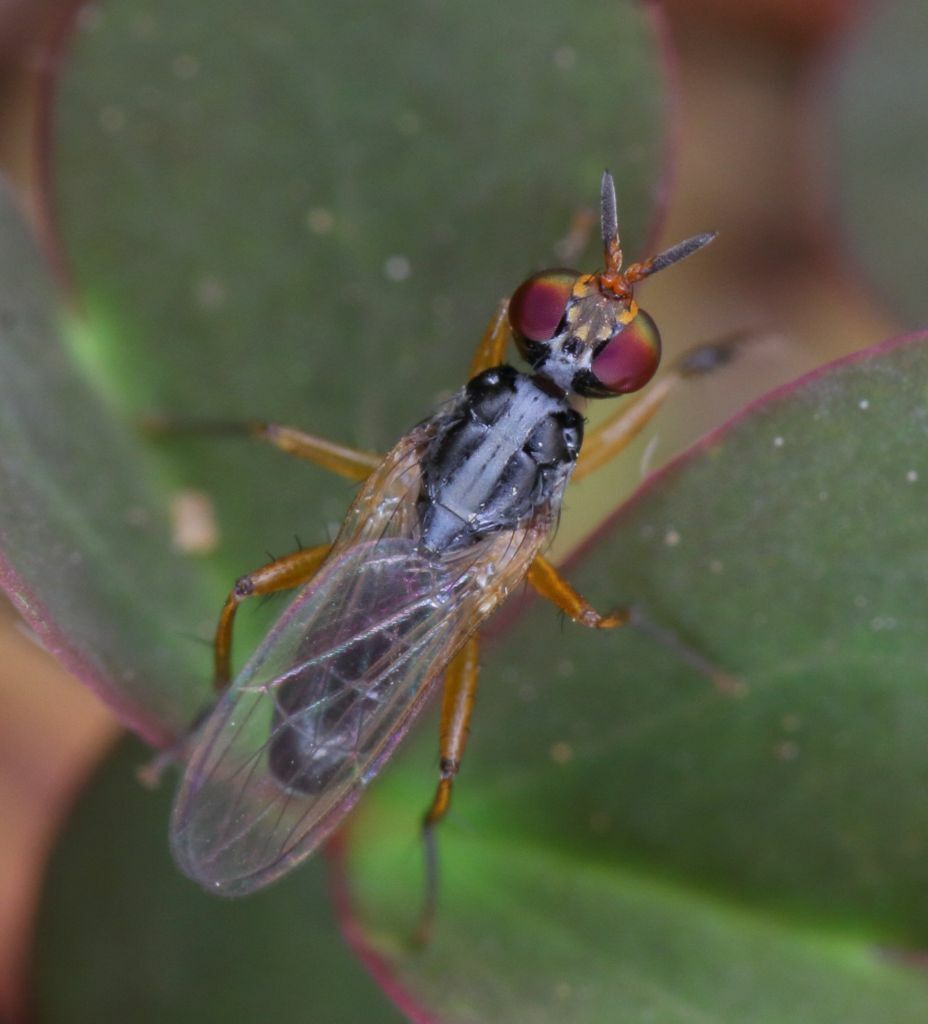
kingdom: Animalia
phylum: Arthropoda
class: Insecta
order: Diptera
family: Muscidae
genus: Anaphalantus
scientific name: Anaphalantus longicornis
